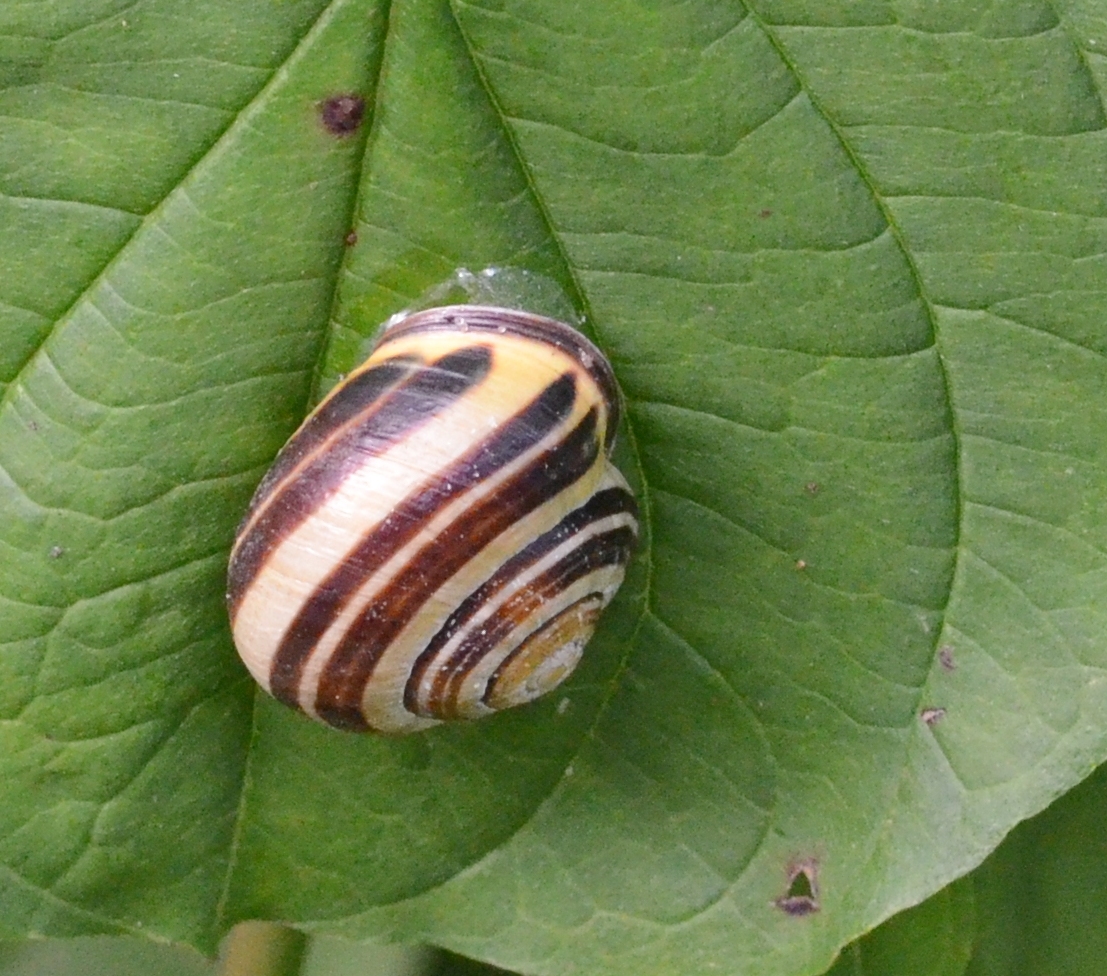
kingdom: Animalia
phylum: Mollusca
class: Gastropoda
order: Stylommatophora
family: Helicidae
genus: Cepaea
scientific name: Cepaea nemoralis
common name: Grovesnail
